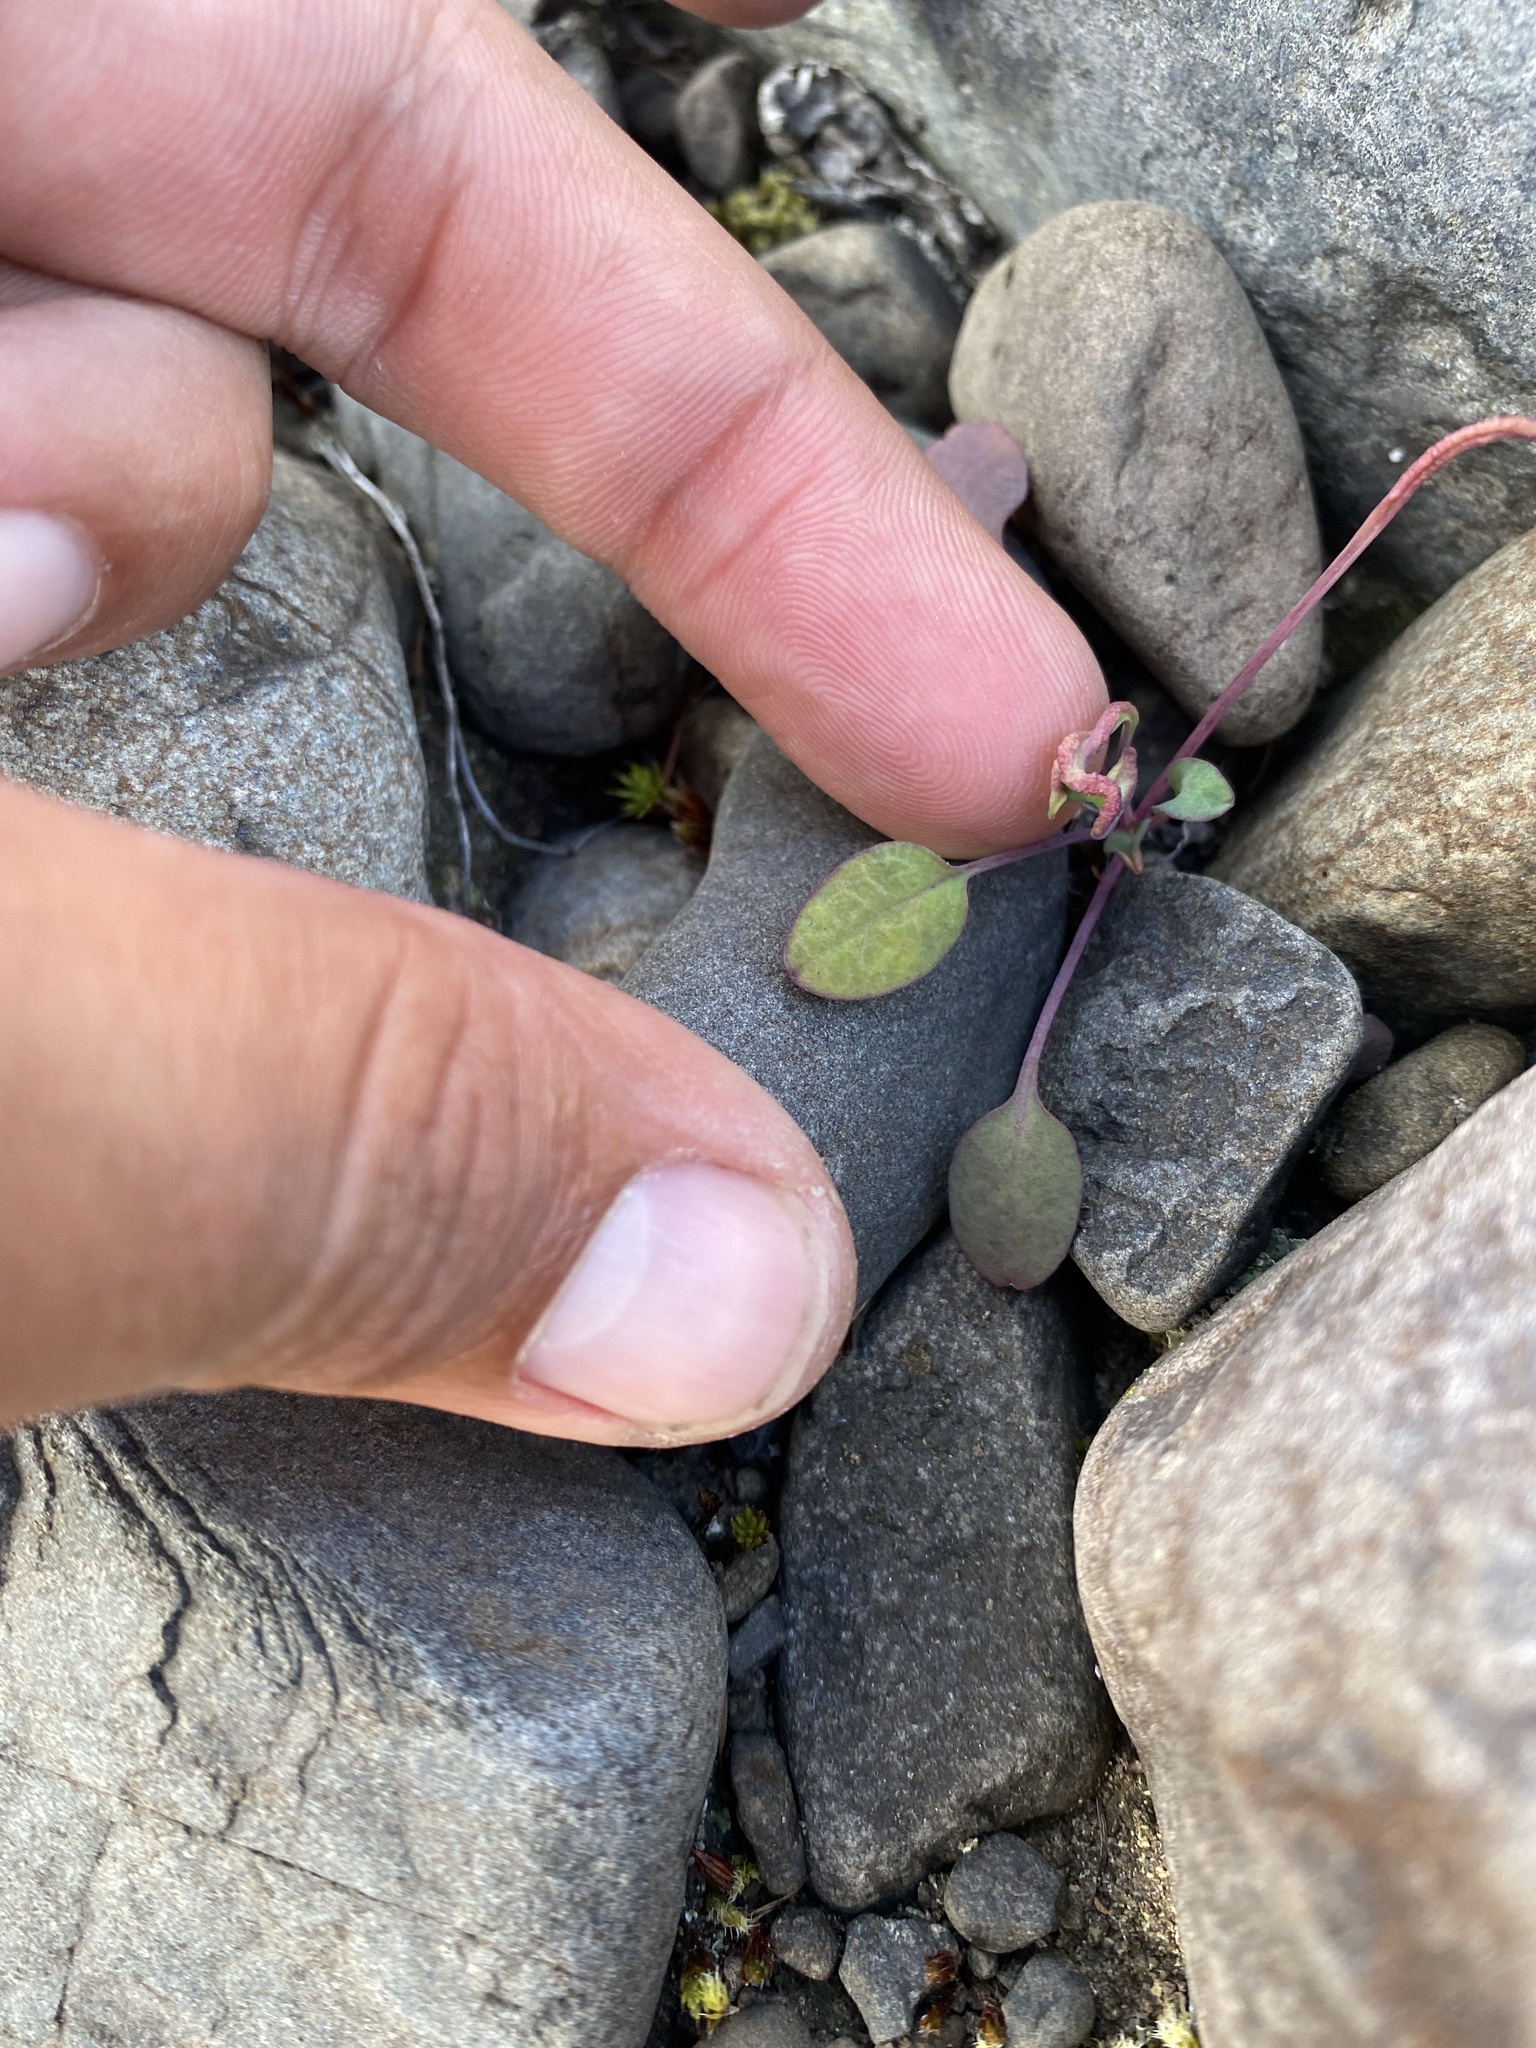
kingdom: Plantae
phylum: Tracheophyta
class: Magnoliopsida
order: Asterales
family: Asteraceae
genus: Askellia
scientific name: Askellia pygmaea
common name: Dwarf alpine hawksbeard
